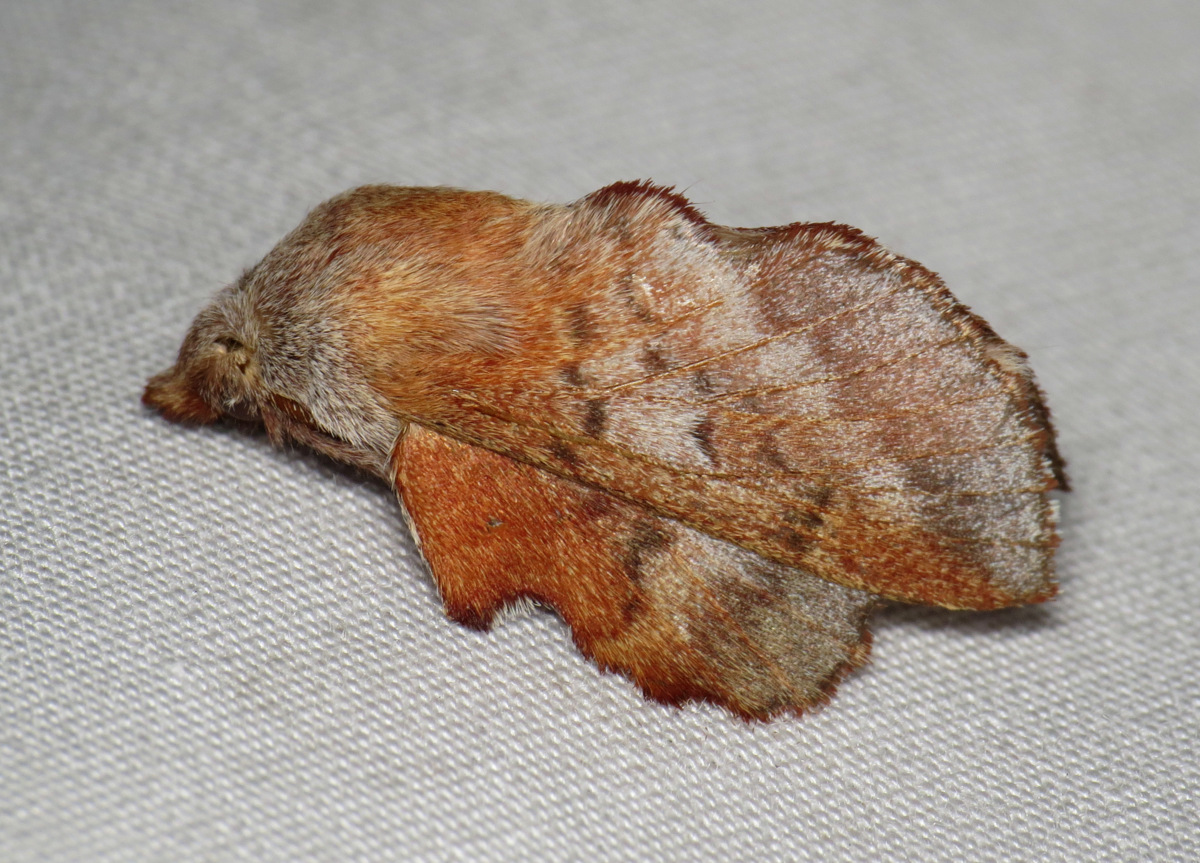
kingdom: Animalia
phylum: Arthropoda
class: Insecta
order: Lepidoptera
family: Lasiocampidae
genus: Phyllodesma
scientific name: Phyllodesma americana
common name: American lappet moth
